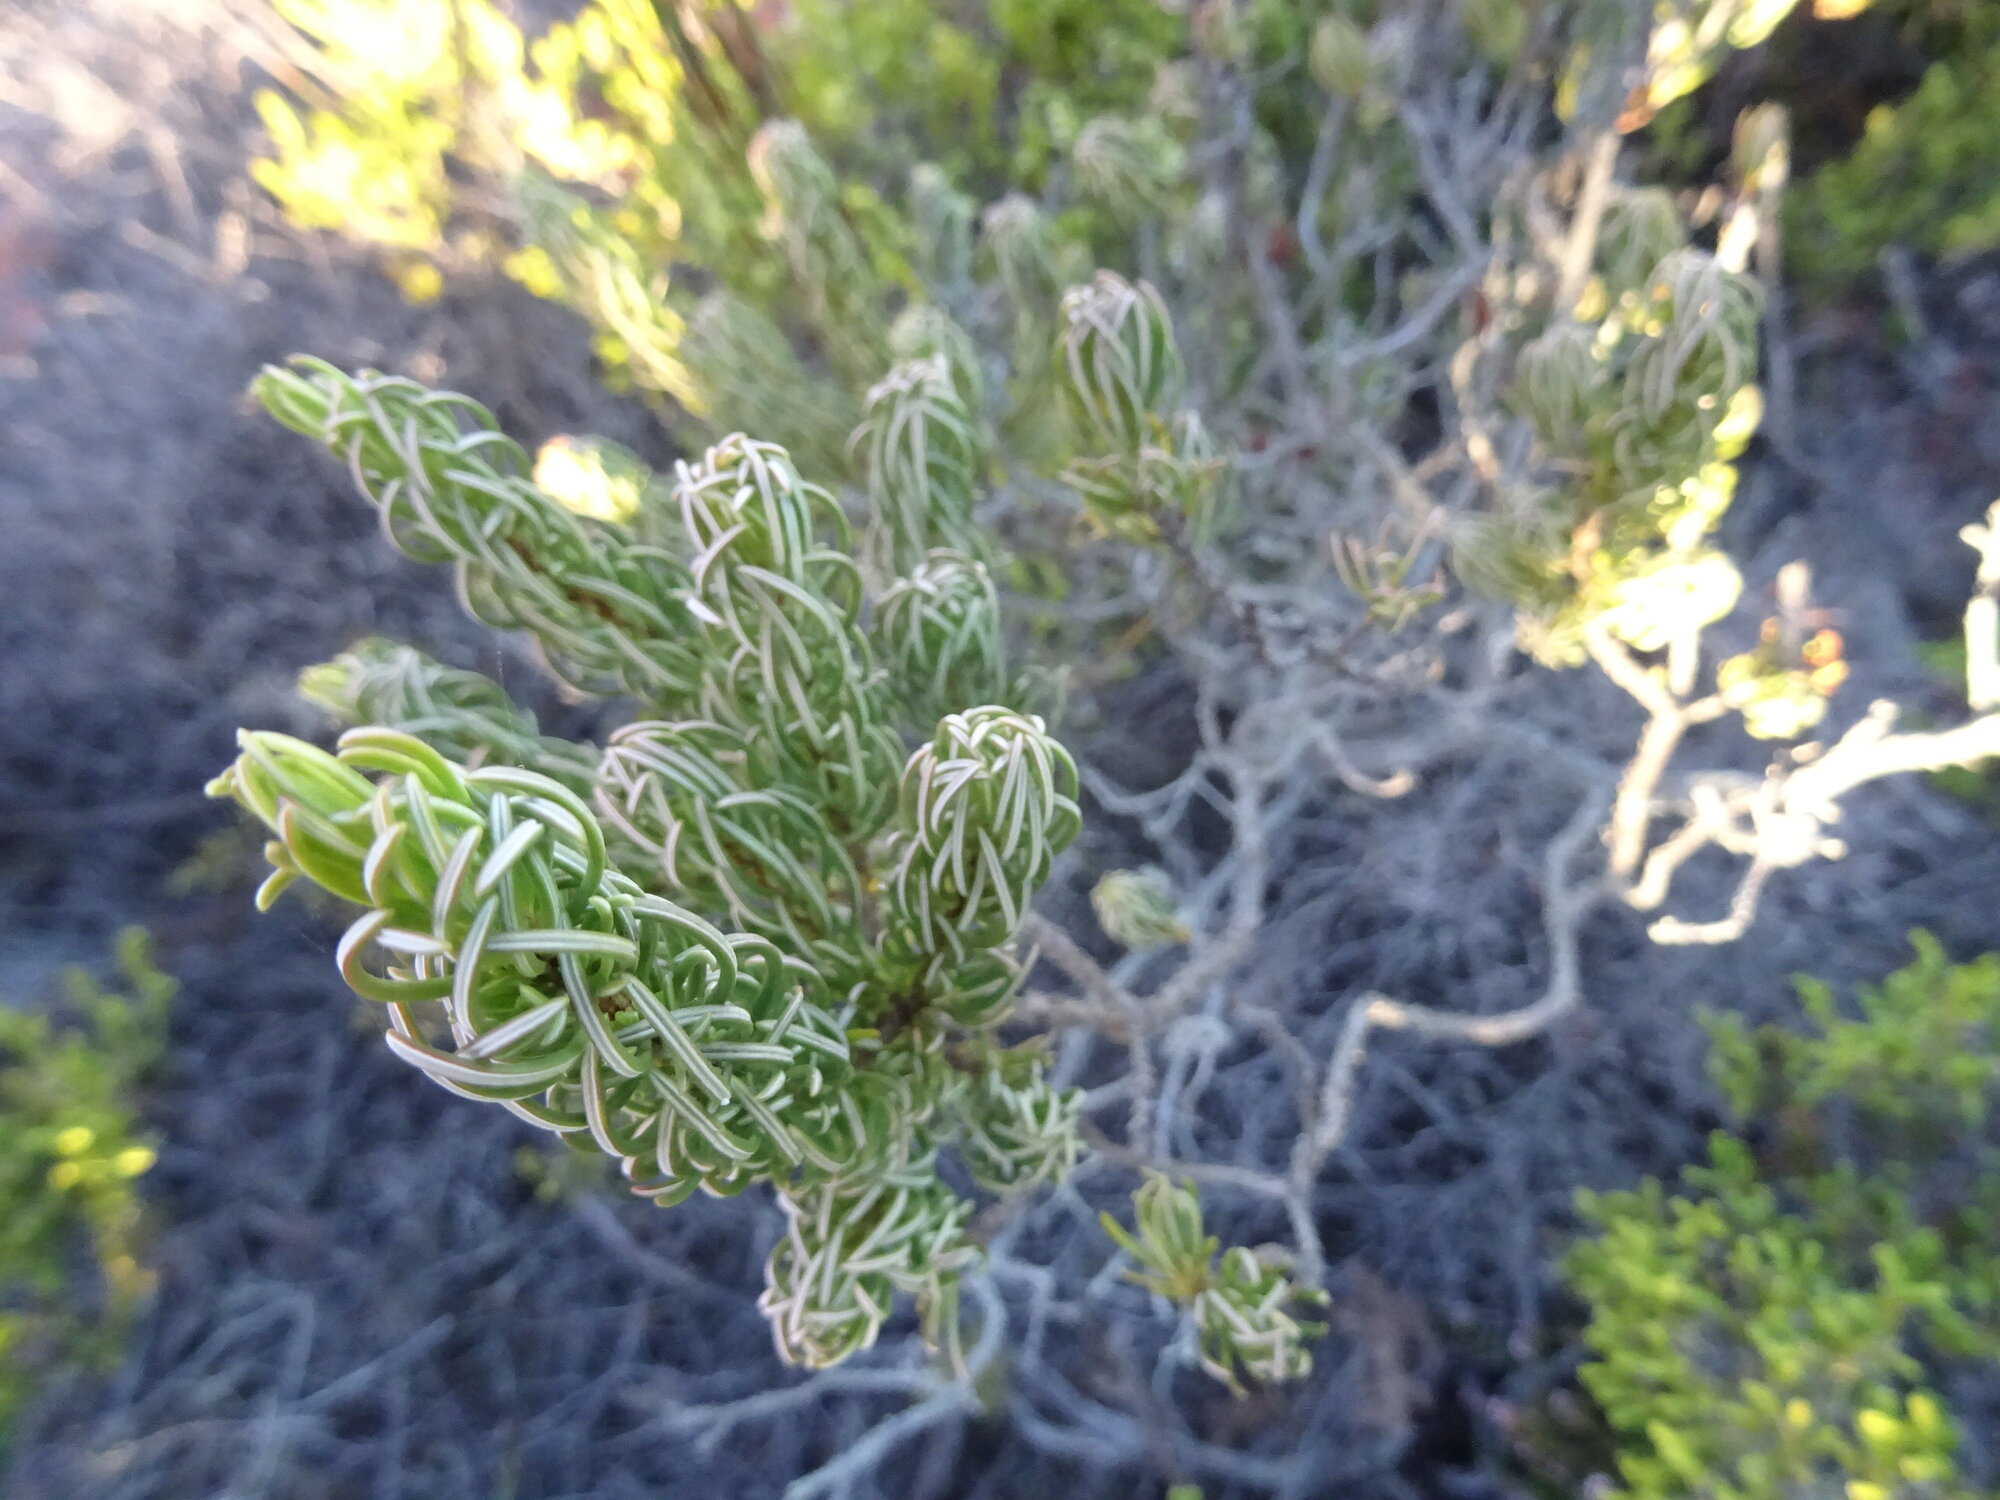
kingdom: Plantae
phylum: Tracheophyta
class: Magnoliopsida
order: Ericales
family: Ericaceae
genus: Erica
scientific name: Erica plukenetii
